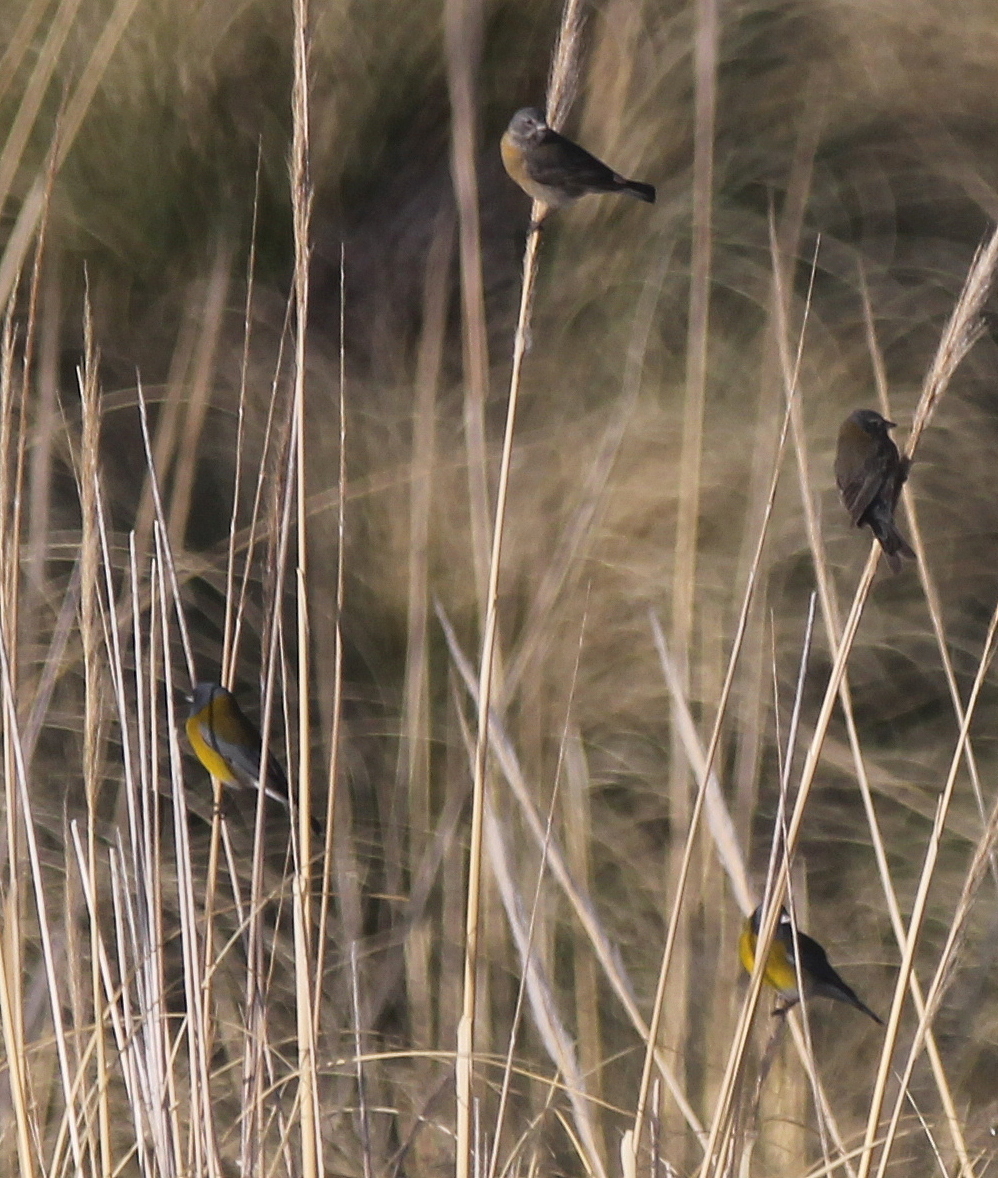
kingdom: Animalia
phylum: Chordata
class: Aves
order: Passeriformes
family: Thraupidae
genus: Phrygilus
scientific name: Phrygilus gayi
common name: Grey-hooded sierra finch
